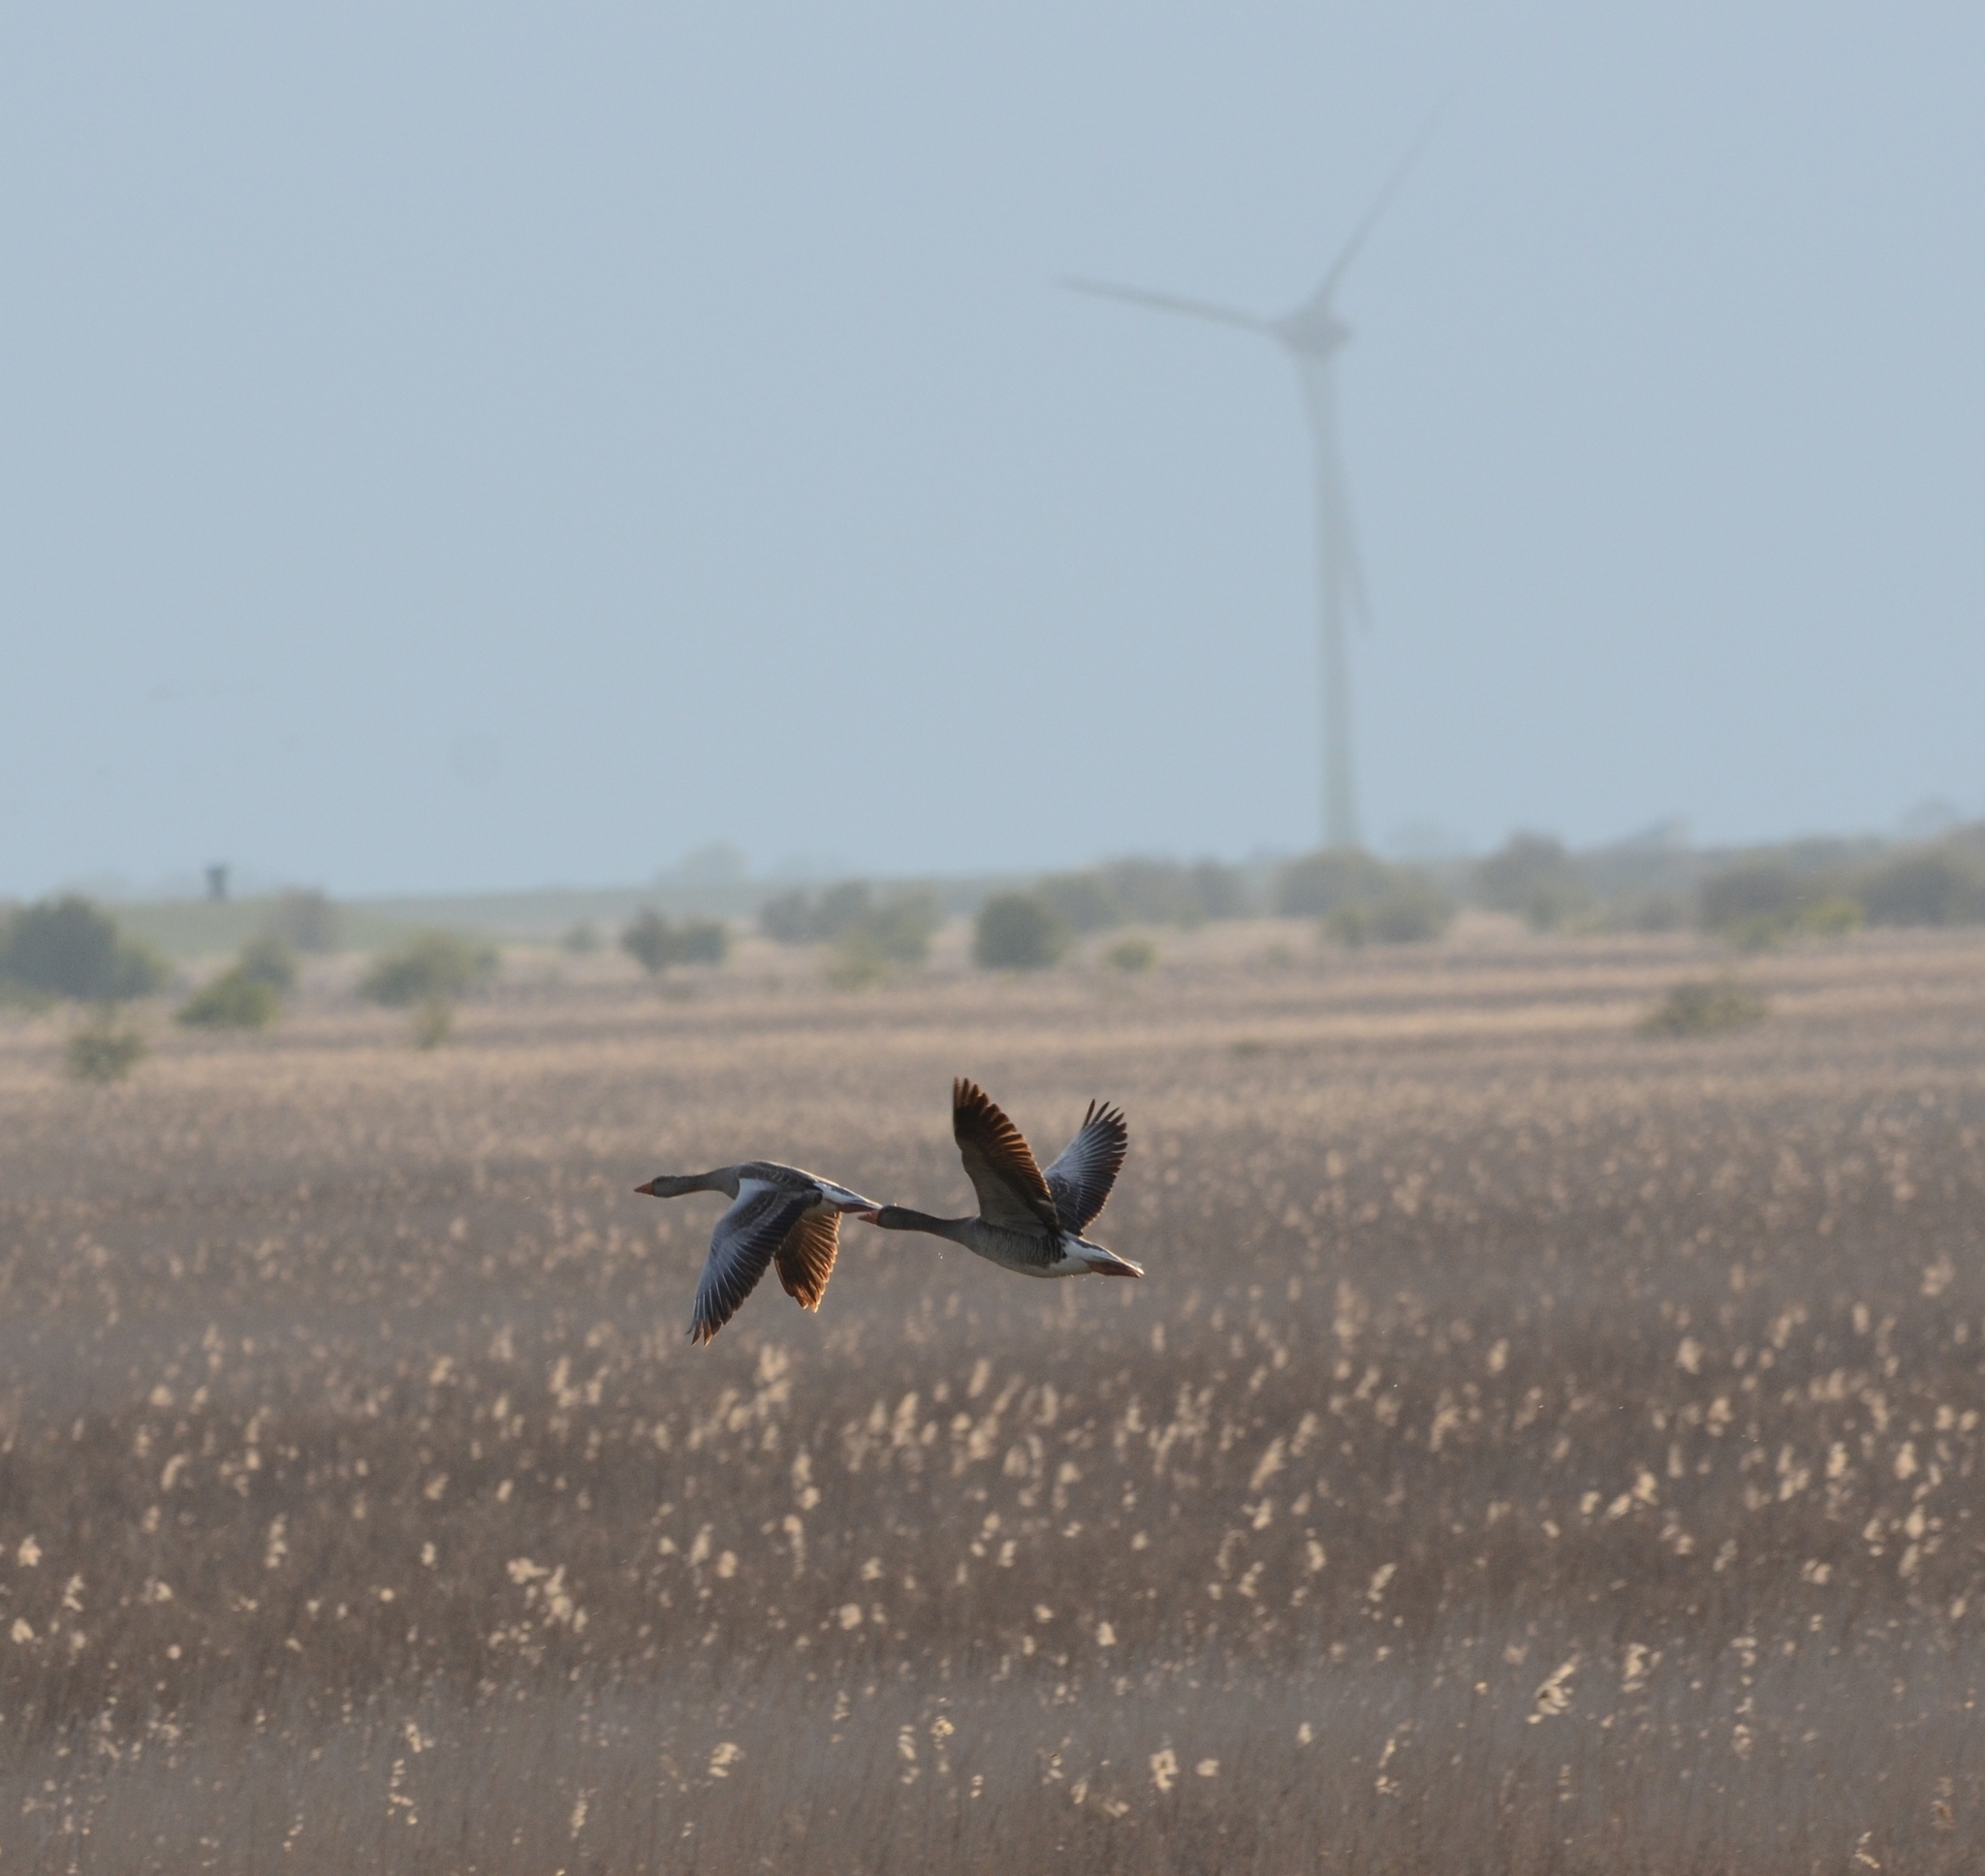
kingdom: Animalia
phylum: Chordata
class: Aves
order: Anseriformes
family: Anatidae
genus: Anser
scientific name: Anser anser
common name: Greylag goose
